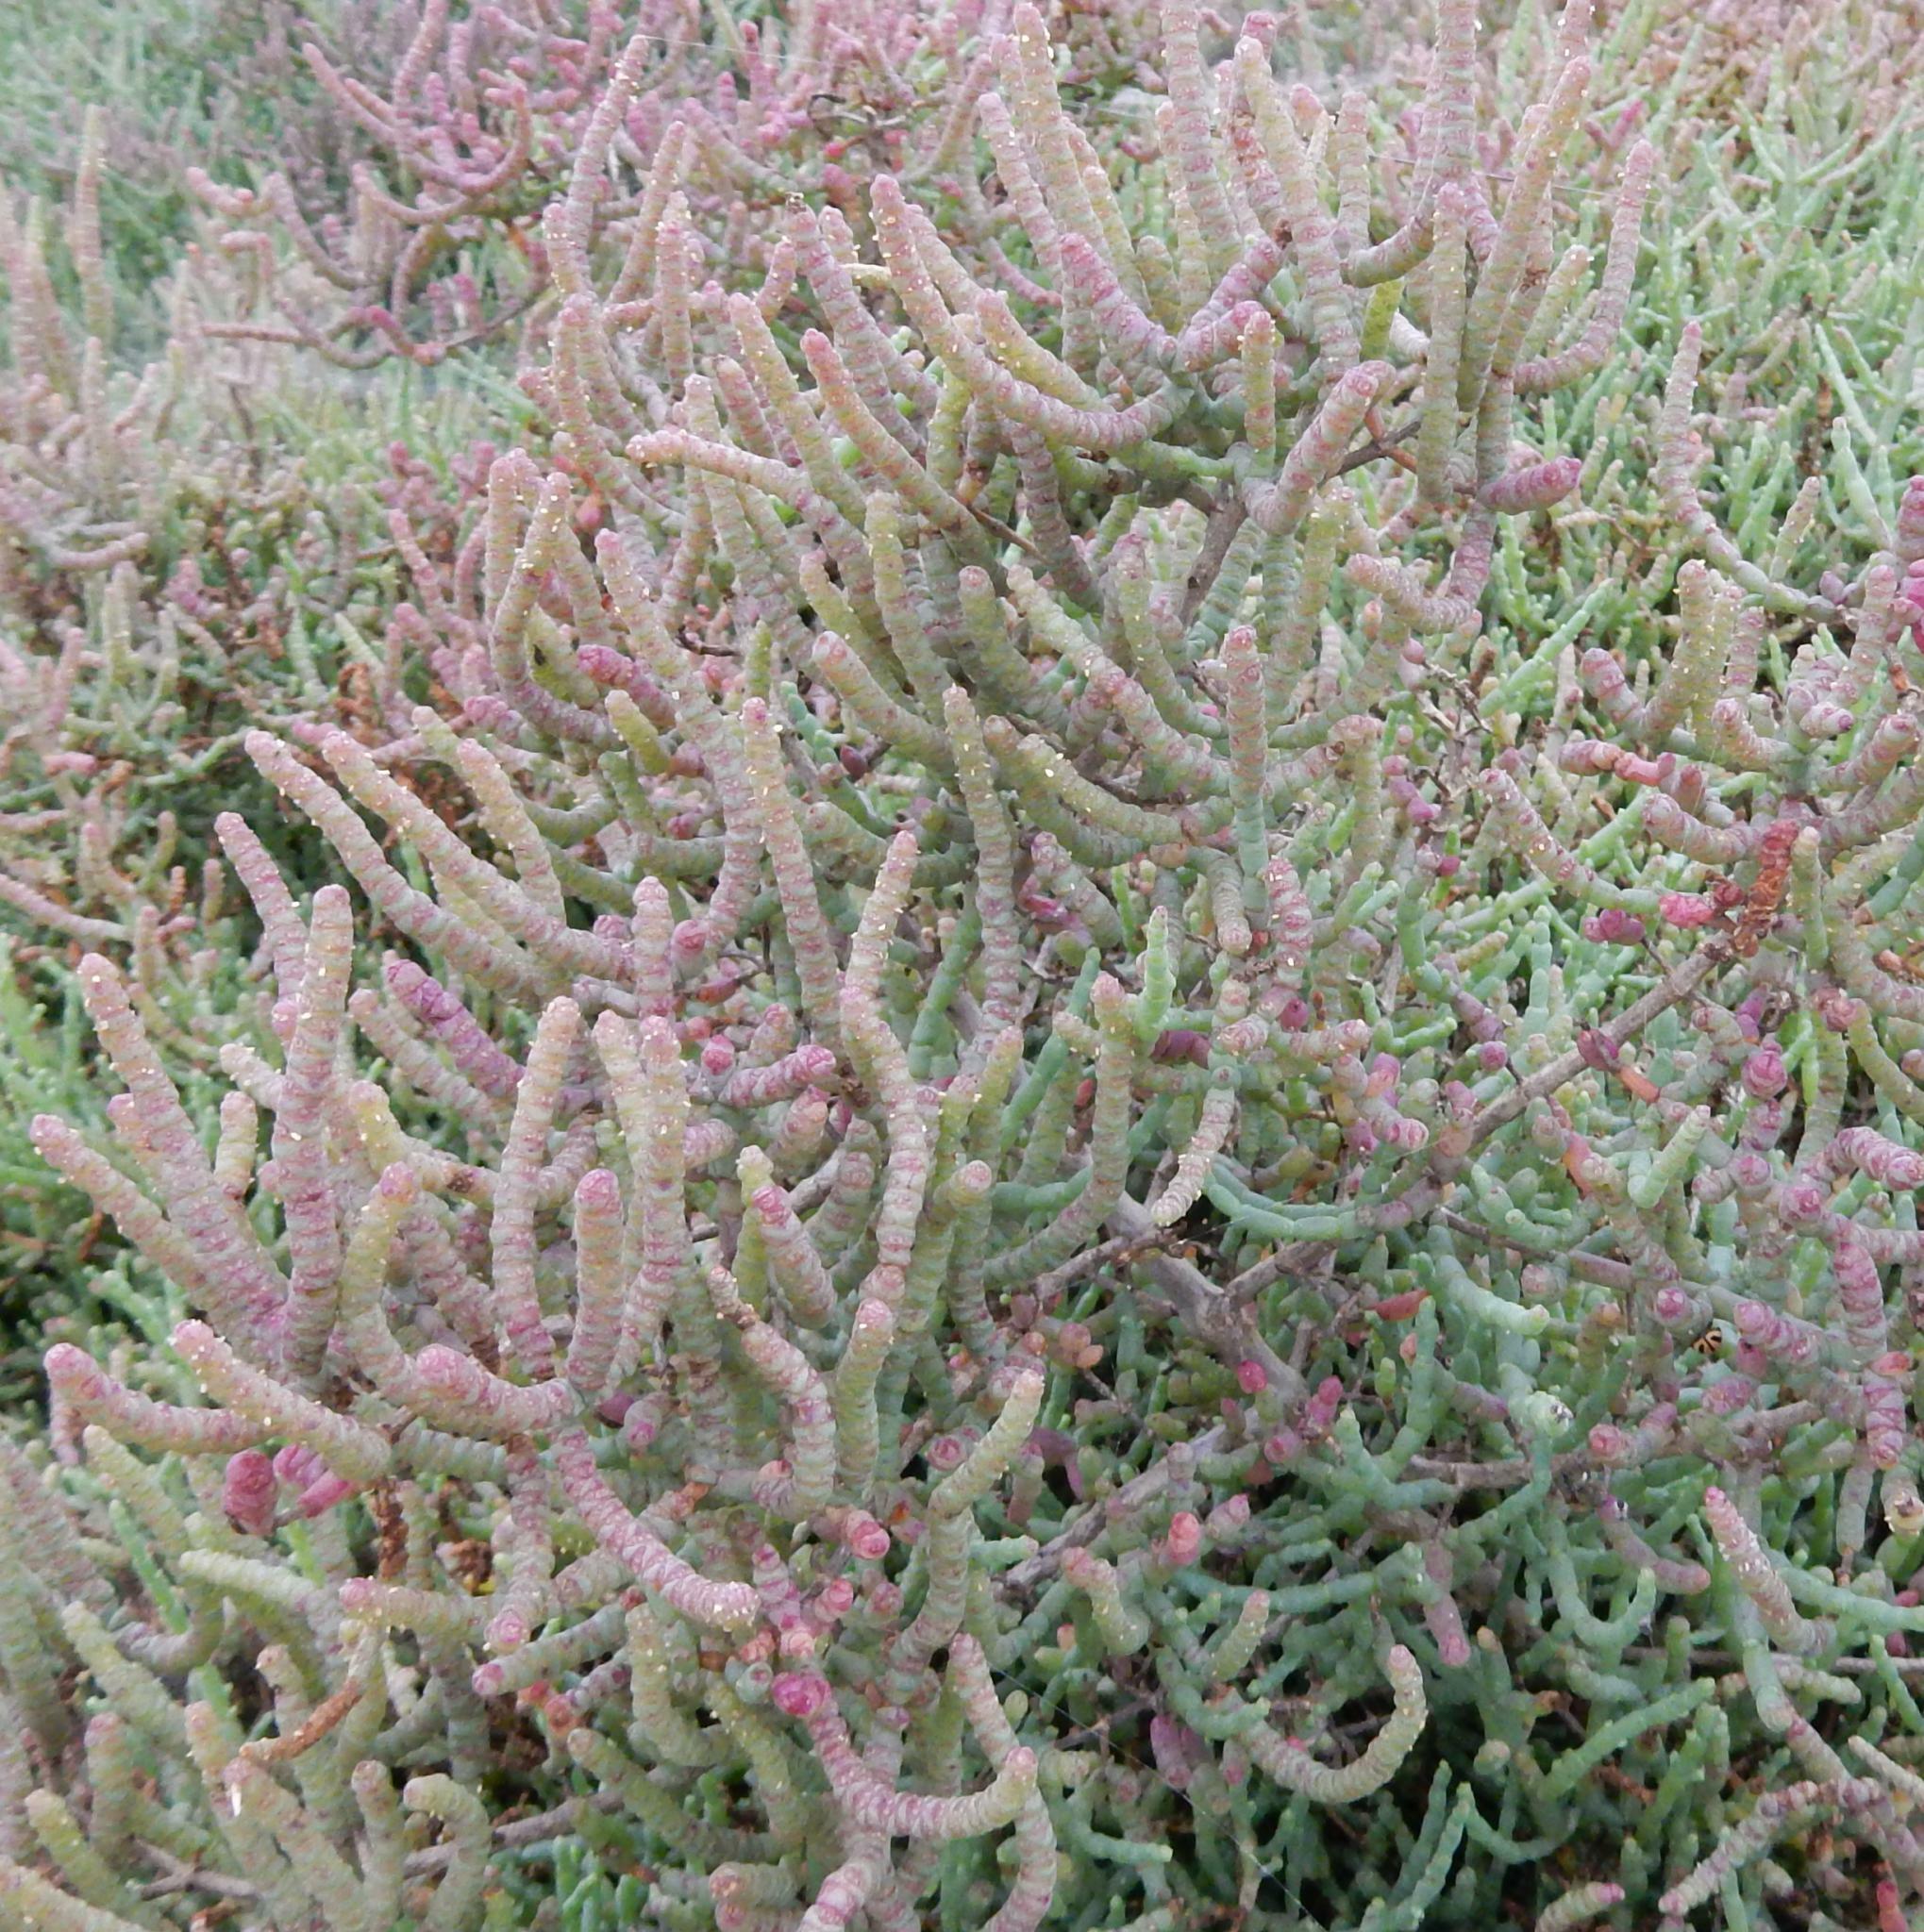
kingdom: Plantae
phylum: Tracheophyta
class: Magnoliopsida
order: Caryophyllales
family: Amaranthaceae
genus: Salicornia
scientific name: Salicornia pillansii
